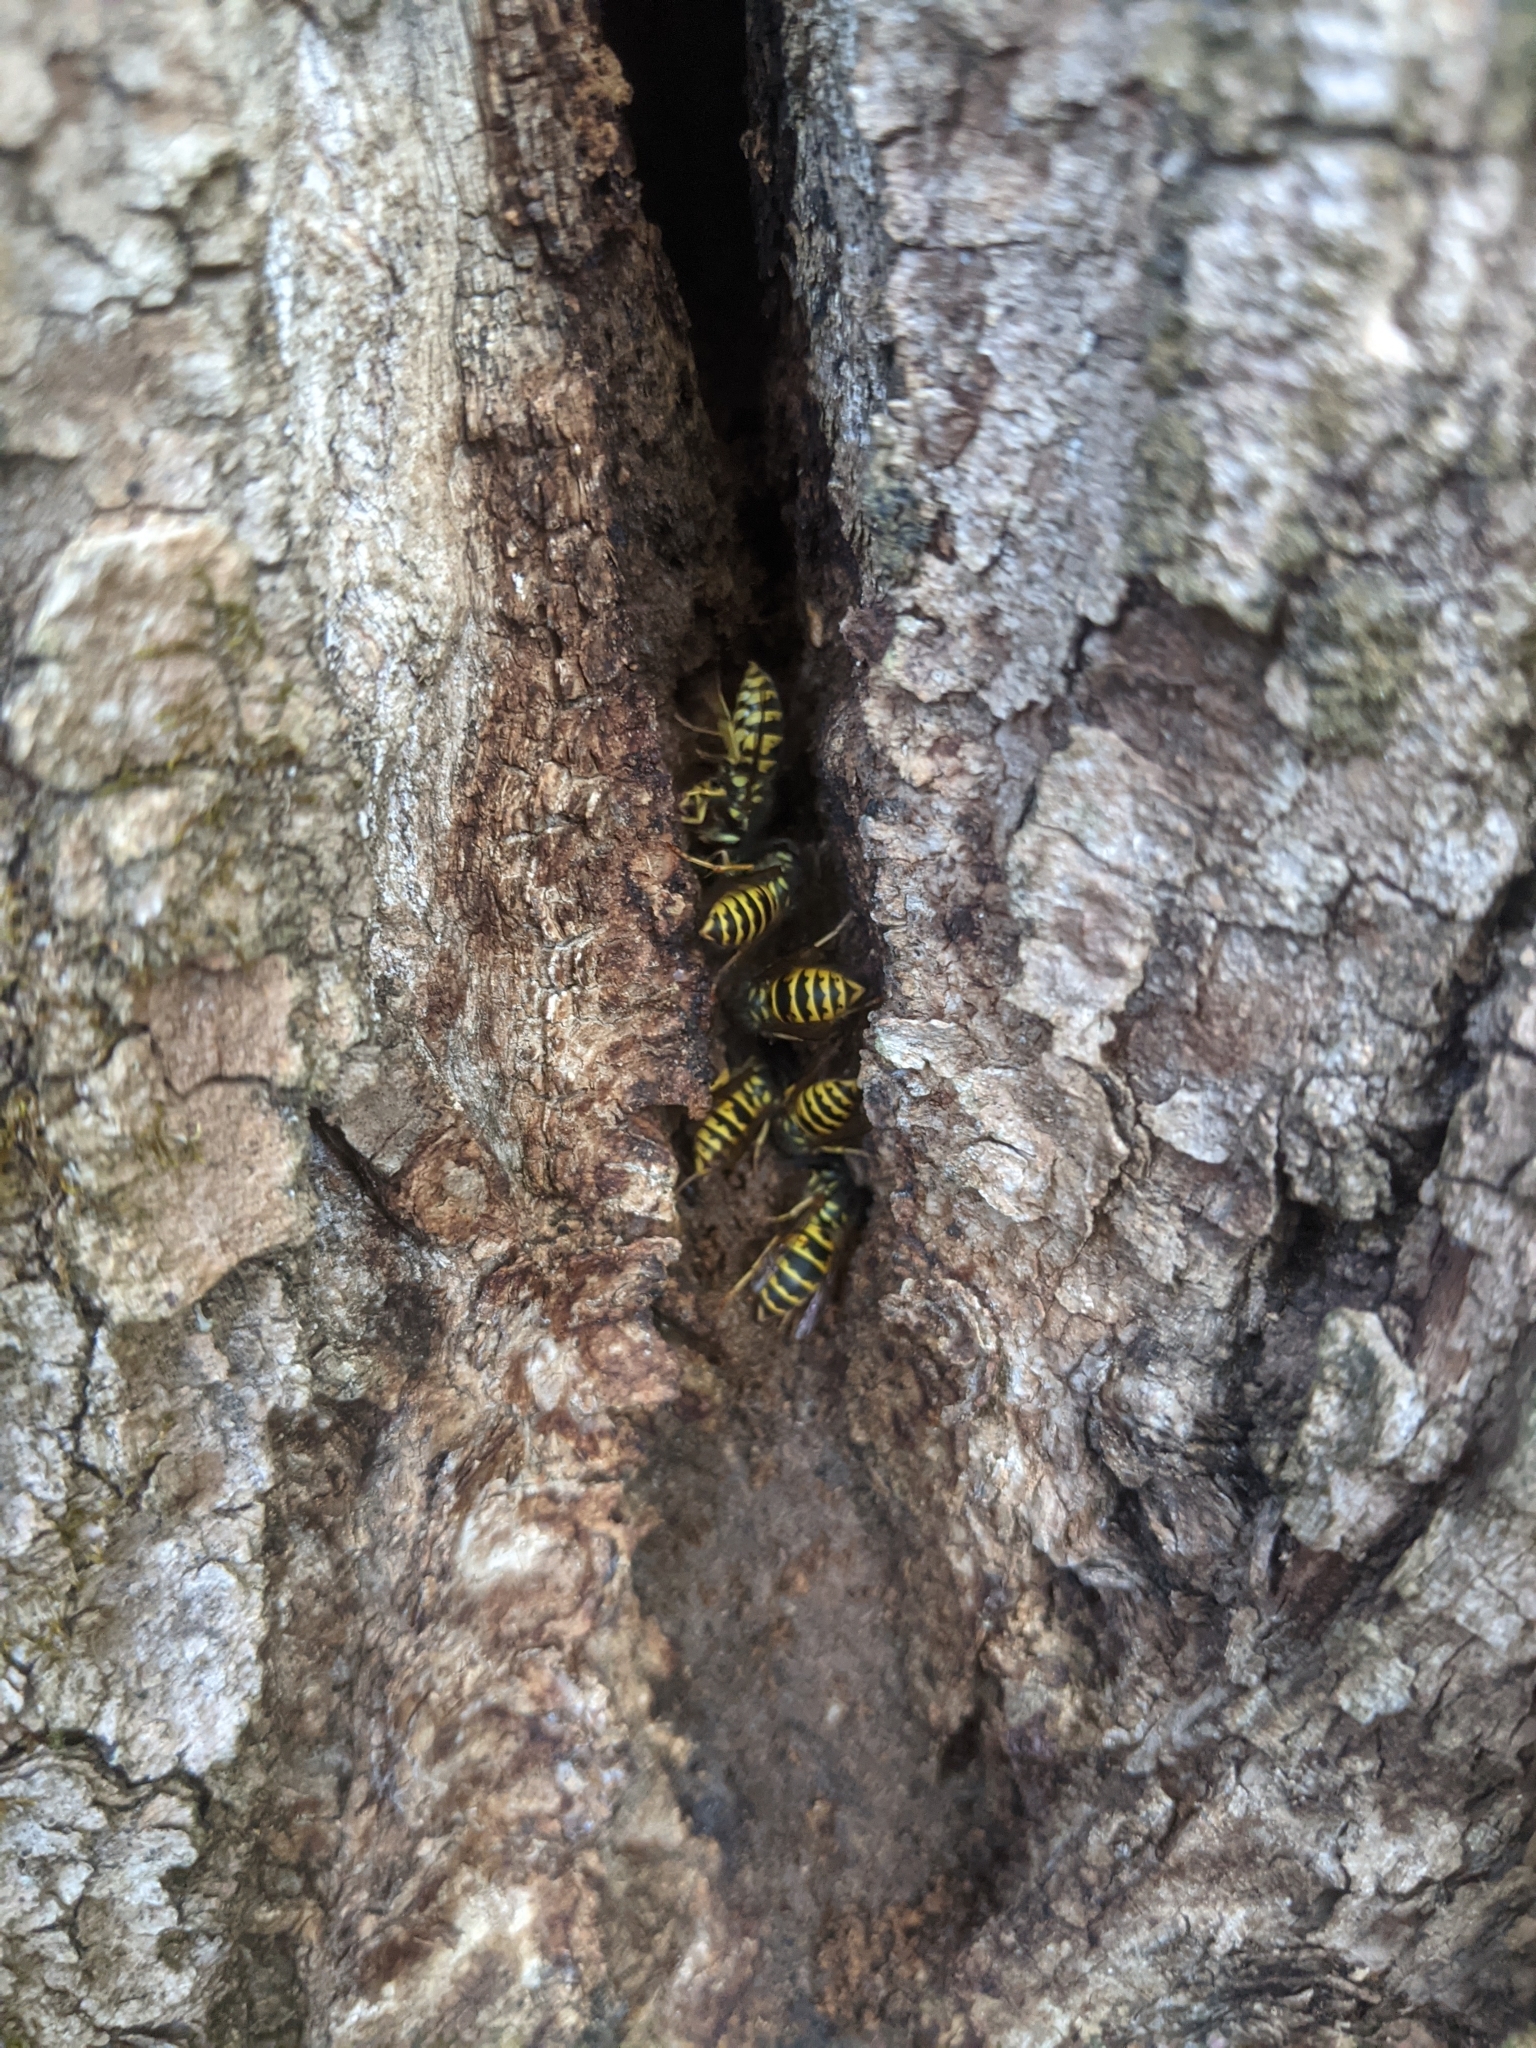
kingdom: Animalia
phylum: Arthropoda
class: Insecta
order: Hymenoptera
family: Vespidae
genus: Vespula
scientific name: Vespula vulgaris
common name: Common wasp
